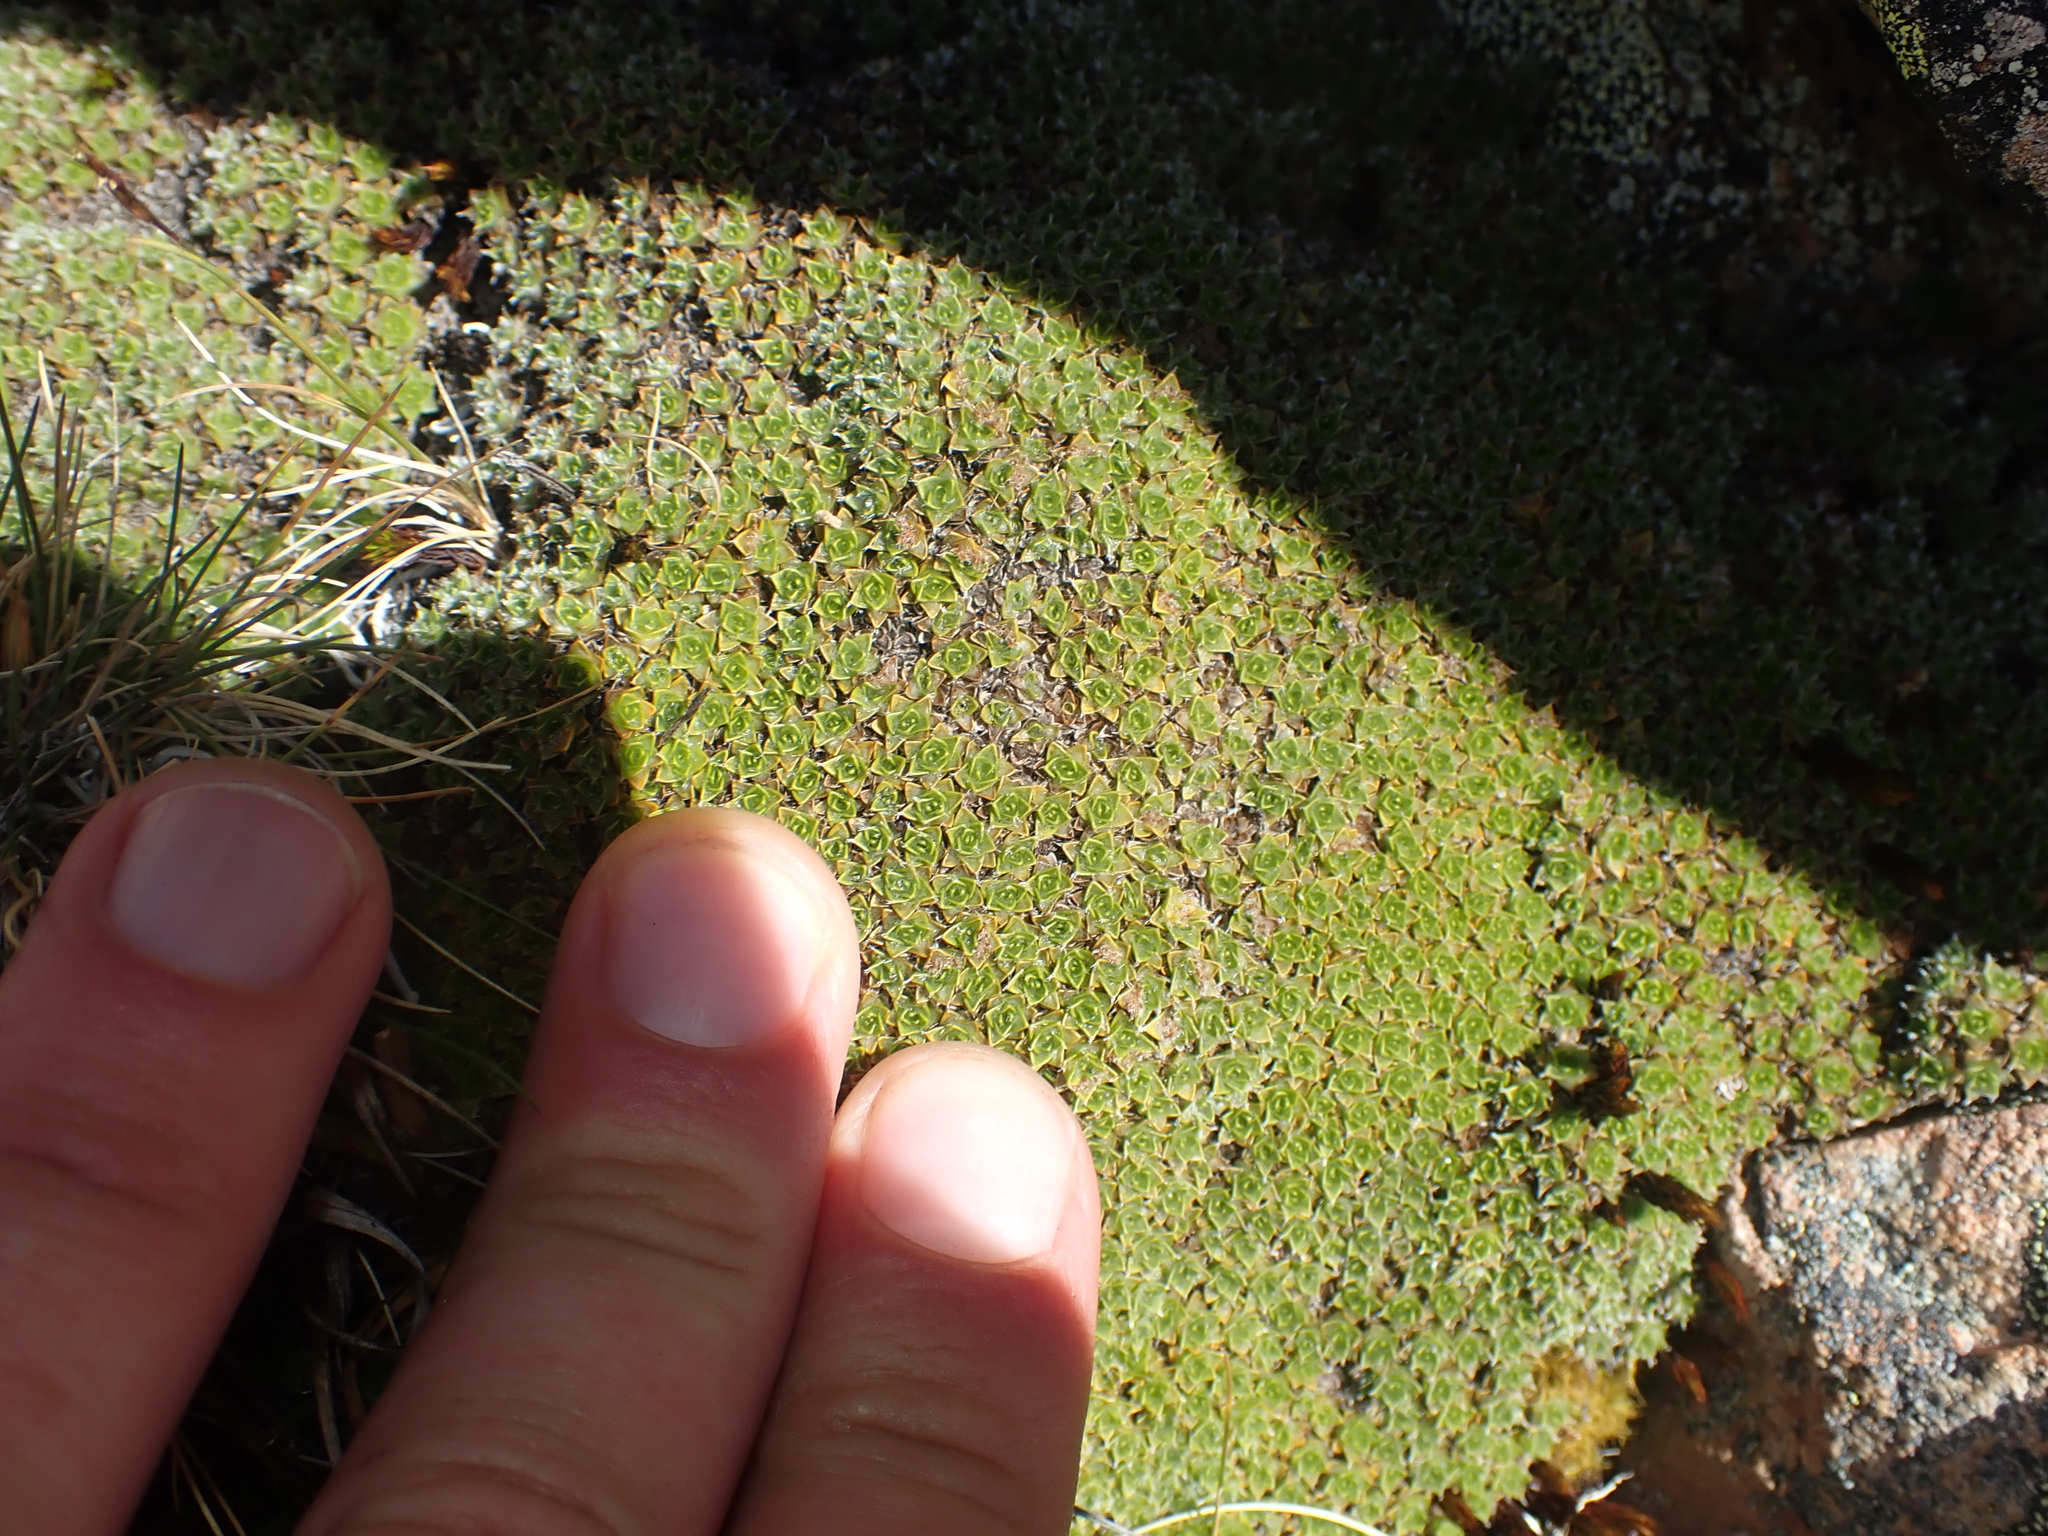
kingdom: Plantae
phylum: Tracheophyta
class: Magnoliopsida
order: Lamiales
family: Plantaginaceae
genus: Veronica
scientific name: Veronica thomsonii
